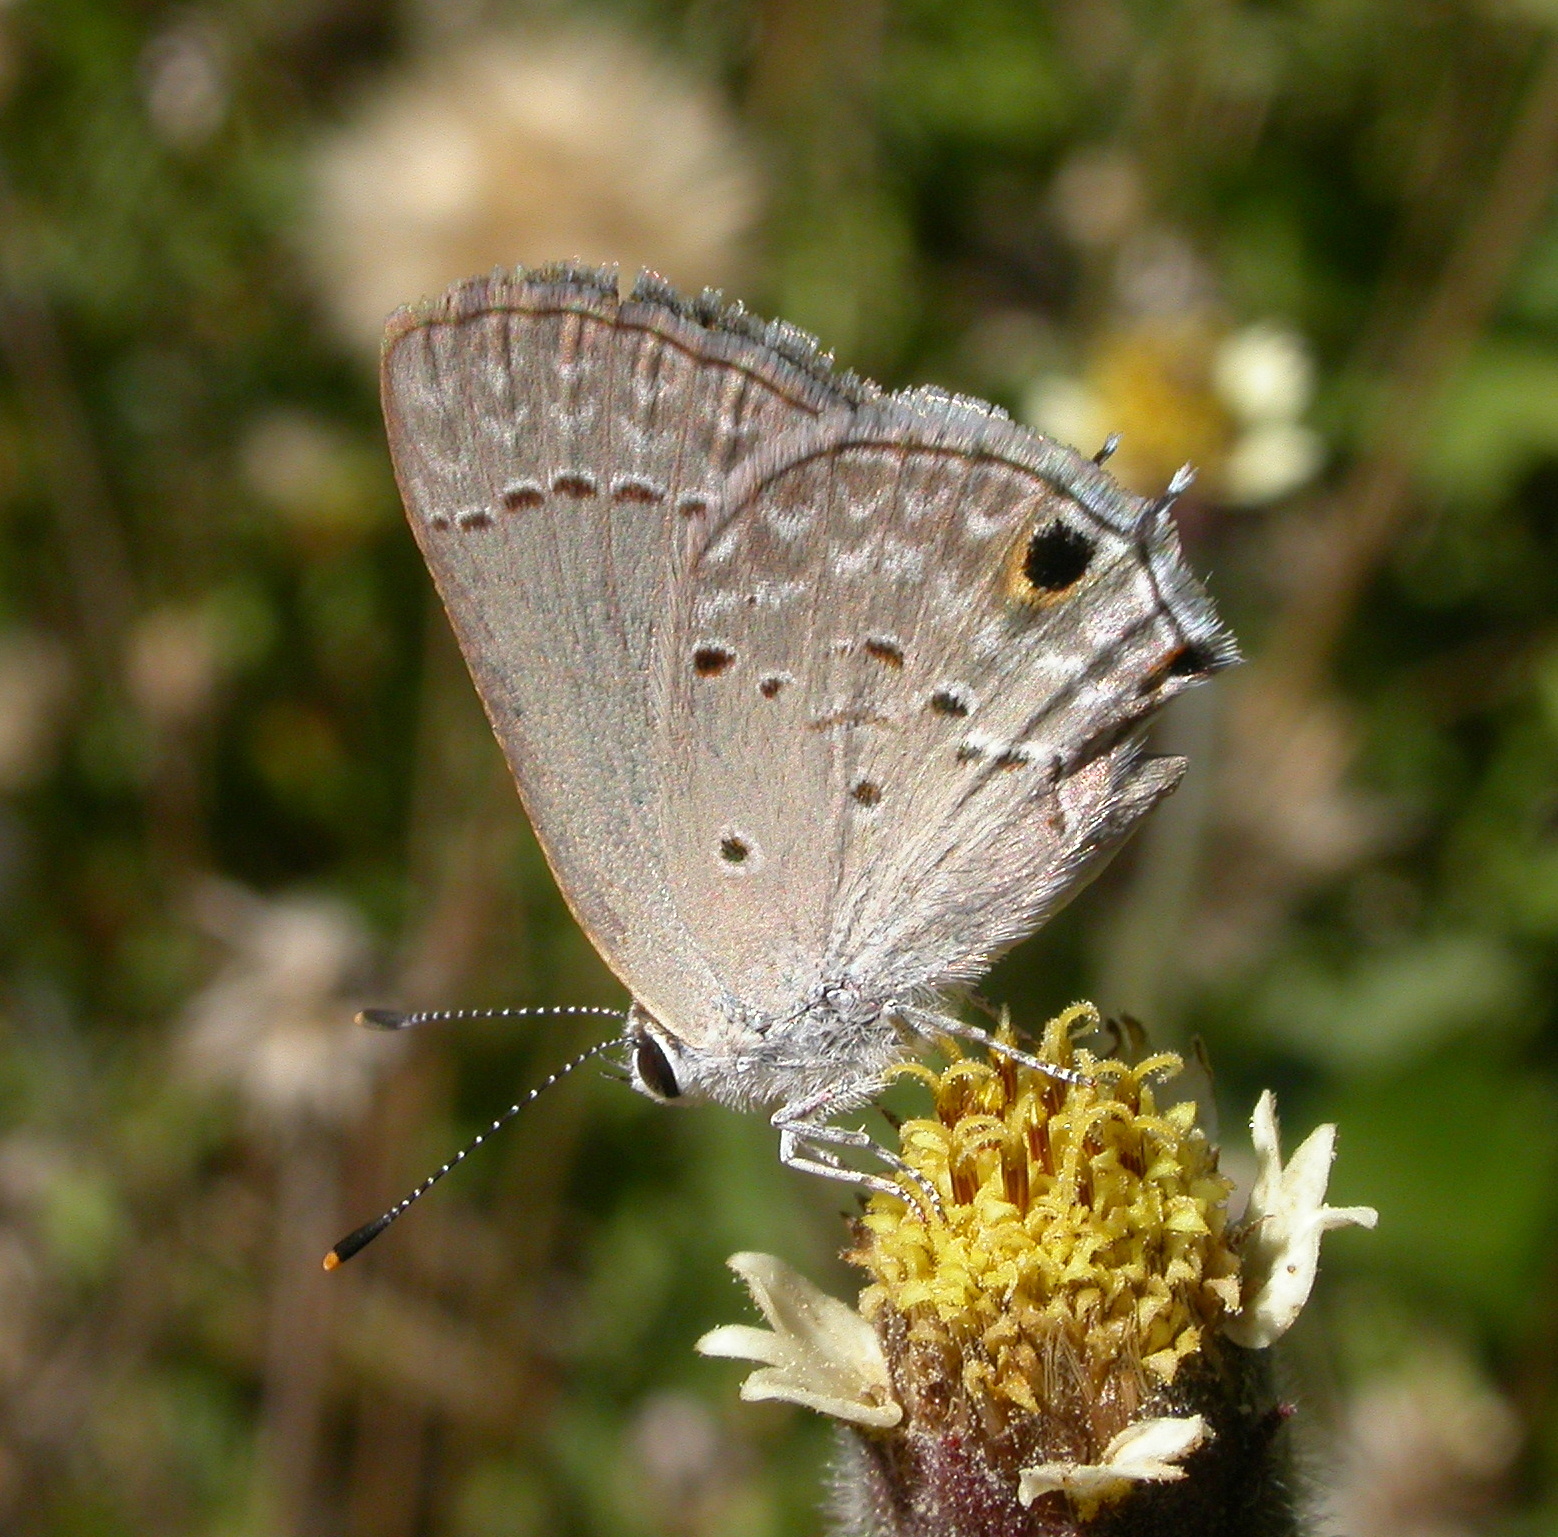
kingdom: Animalia
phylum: Arthropoda
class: Insecta
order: Lepidoptera
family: Lycaenidae
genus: Callicista
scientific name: Callicista columella
